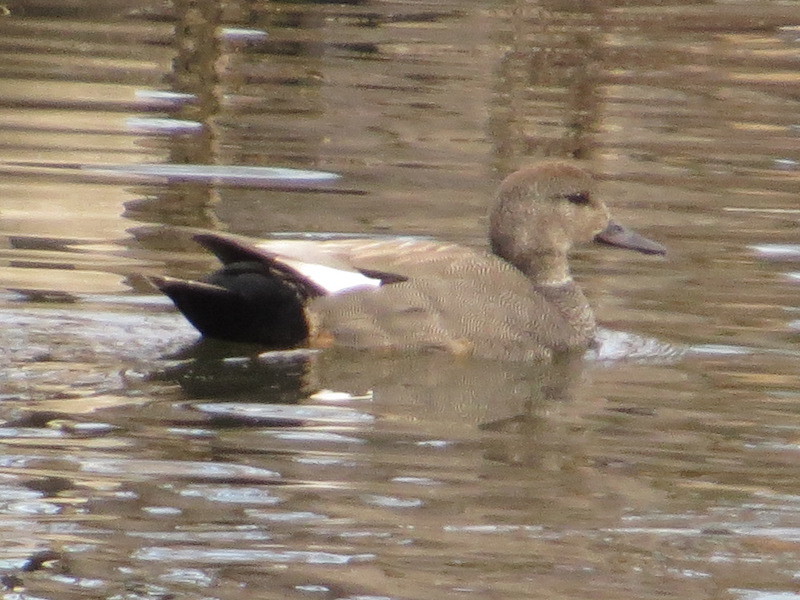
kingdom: Animalia
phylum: Chordata
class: Aves
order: Anseriformes
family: Anatidae
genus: Mareca
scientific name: Mareca strepera
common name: Gadwall
